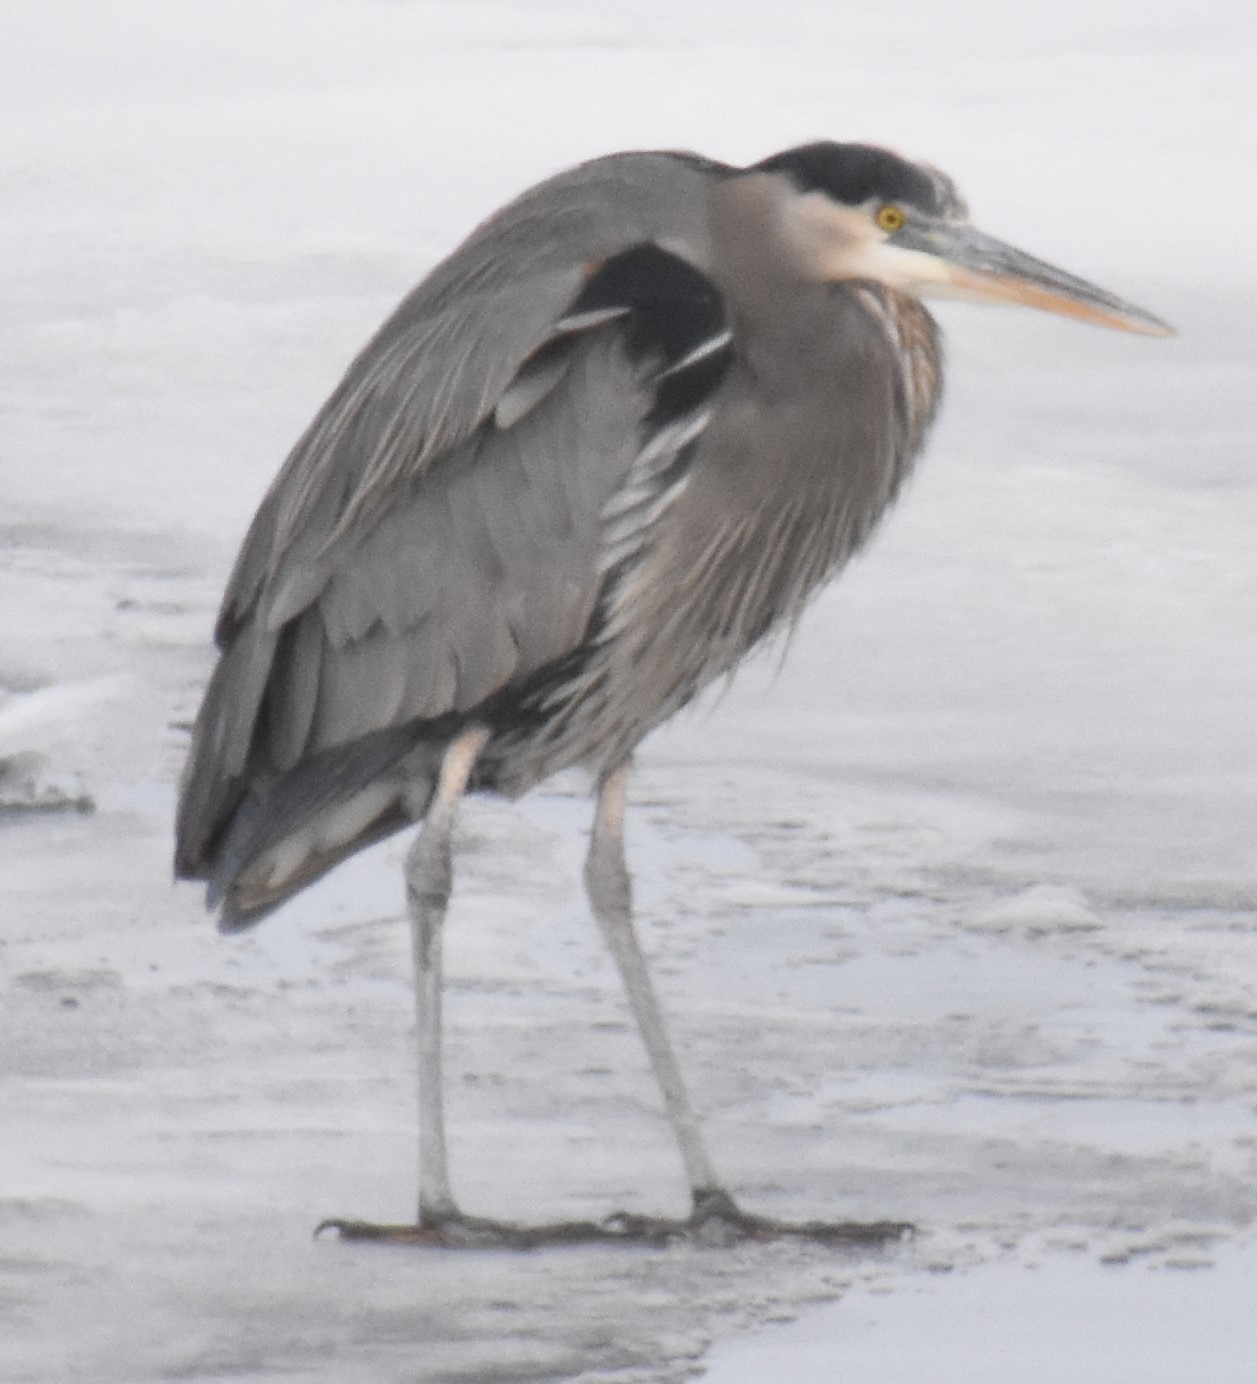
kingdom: Animalia
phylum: Chordata
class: Aves
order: Pelecaniformes
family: Ardeidae
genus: Ardea
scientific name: Ardea herodias
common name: Great blue heron
